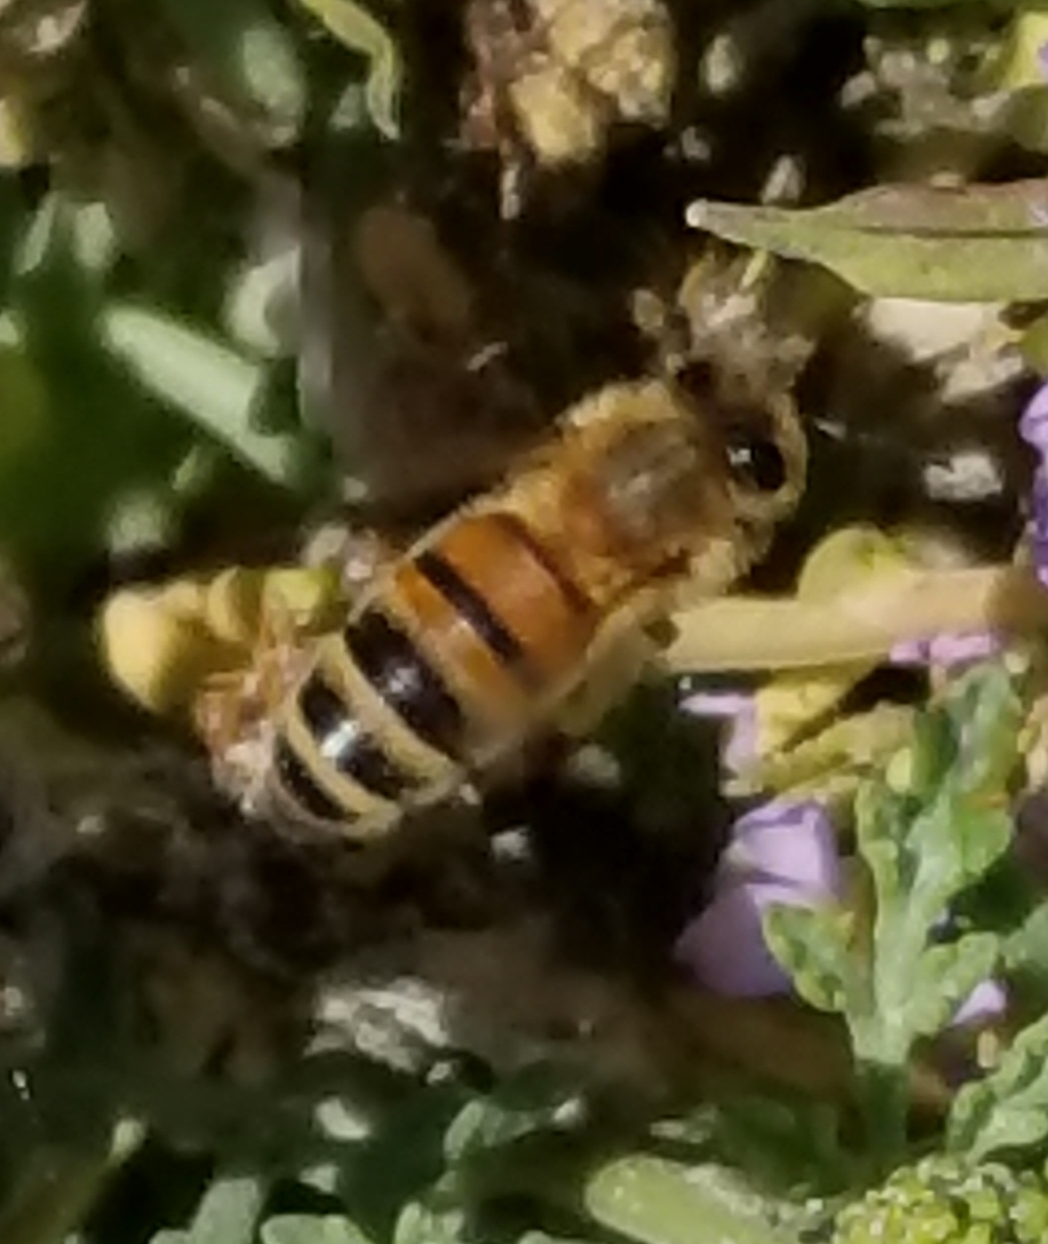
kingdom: Animalia
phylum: Arthropoda
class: Insecta
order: Hymenoptera
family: Apidae
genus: Apis
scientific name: Apis mellifera
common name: Honey bee
